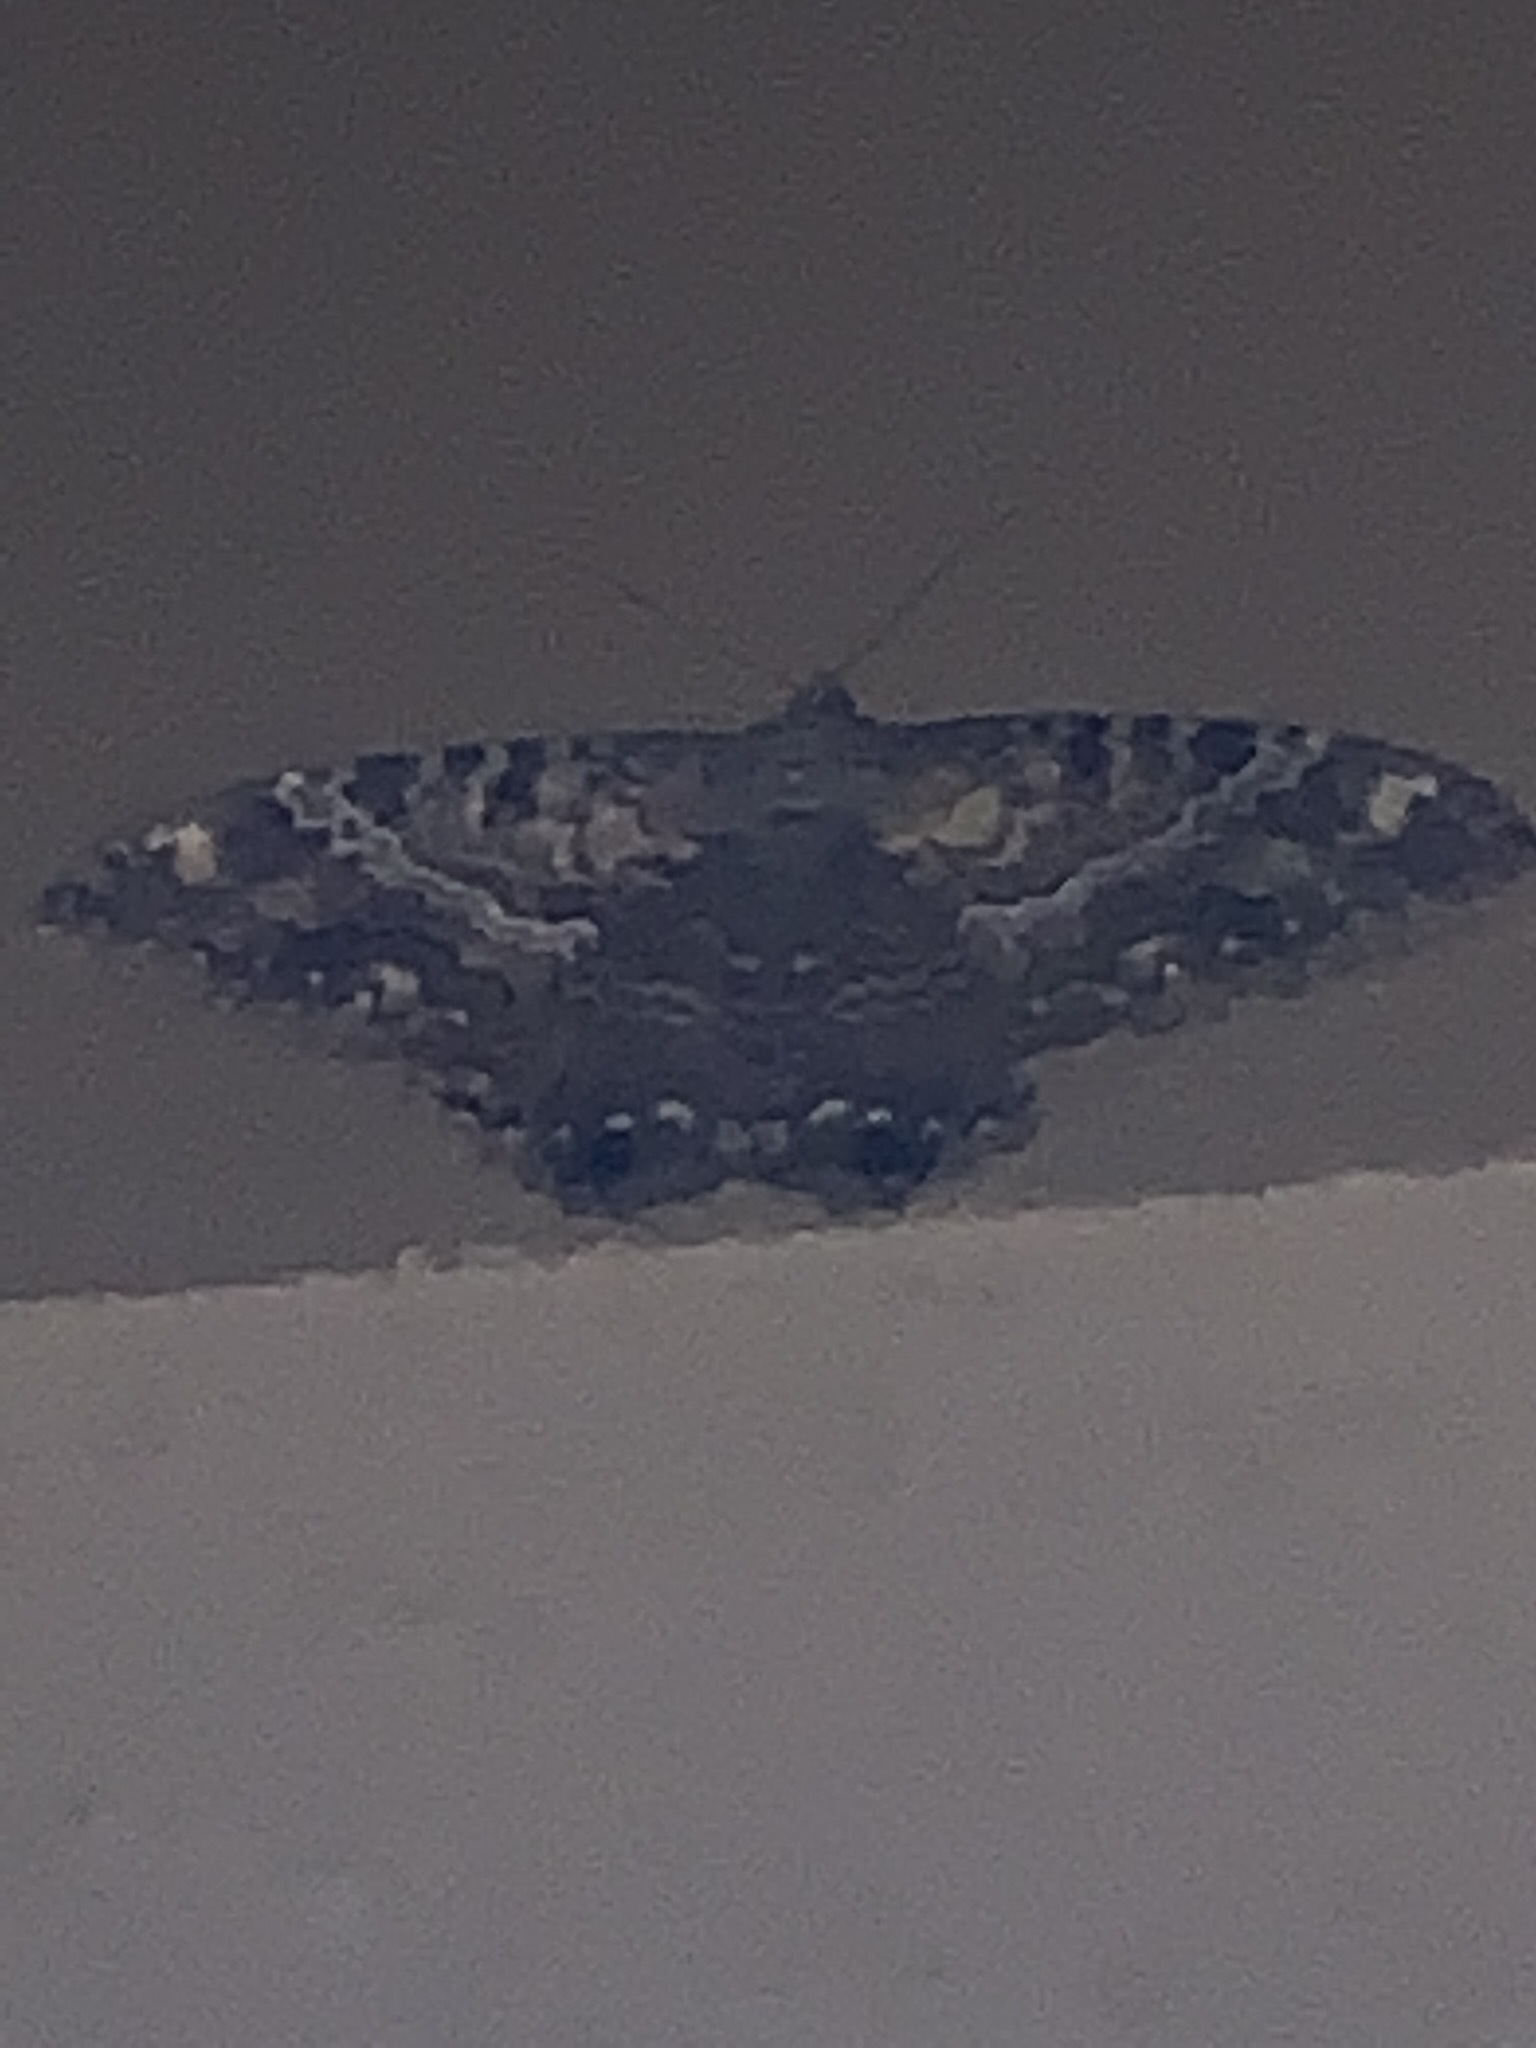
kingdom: Animalia
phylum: Arthropoda
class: Insecta
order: Lepidoptera
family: Erebidae
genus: Ascalapha
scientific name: Ascalapha odorata
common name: Black witch
